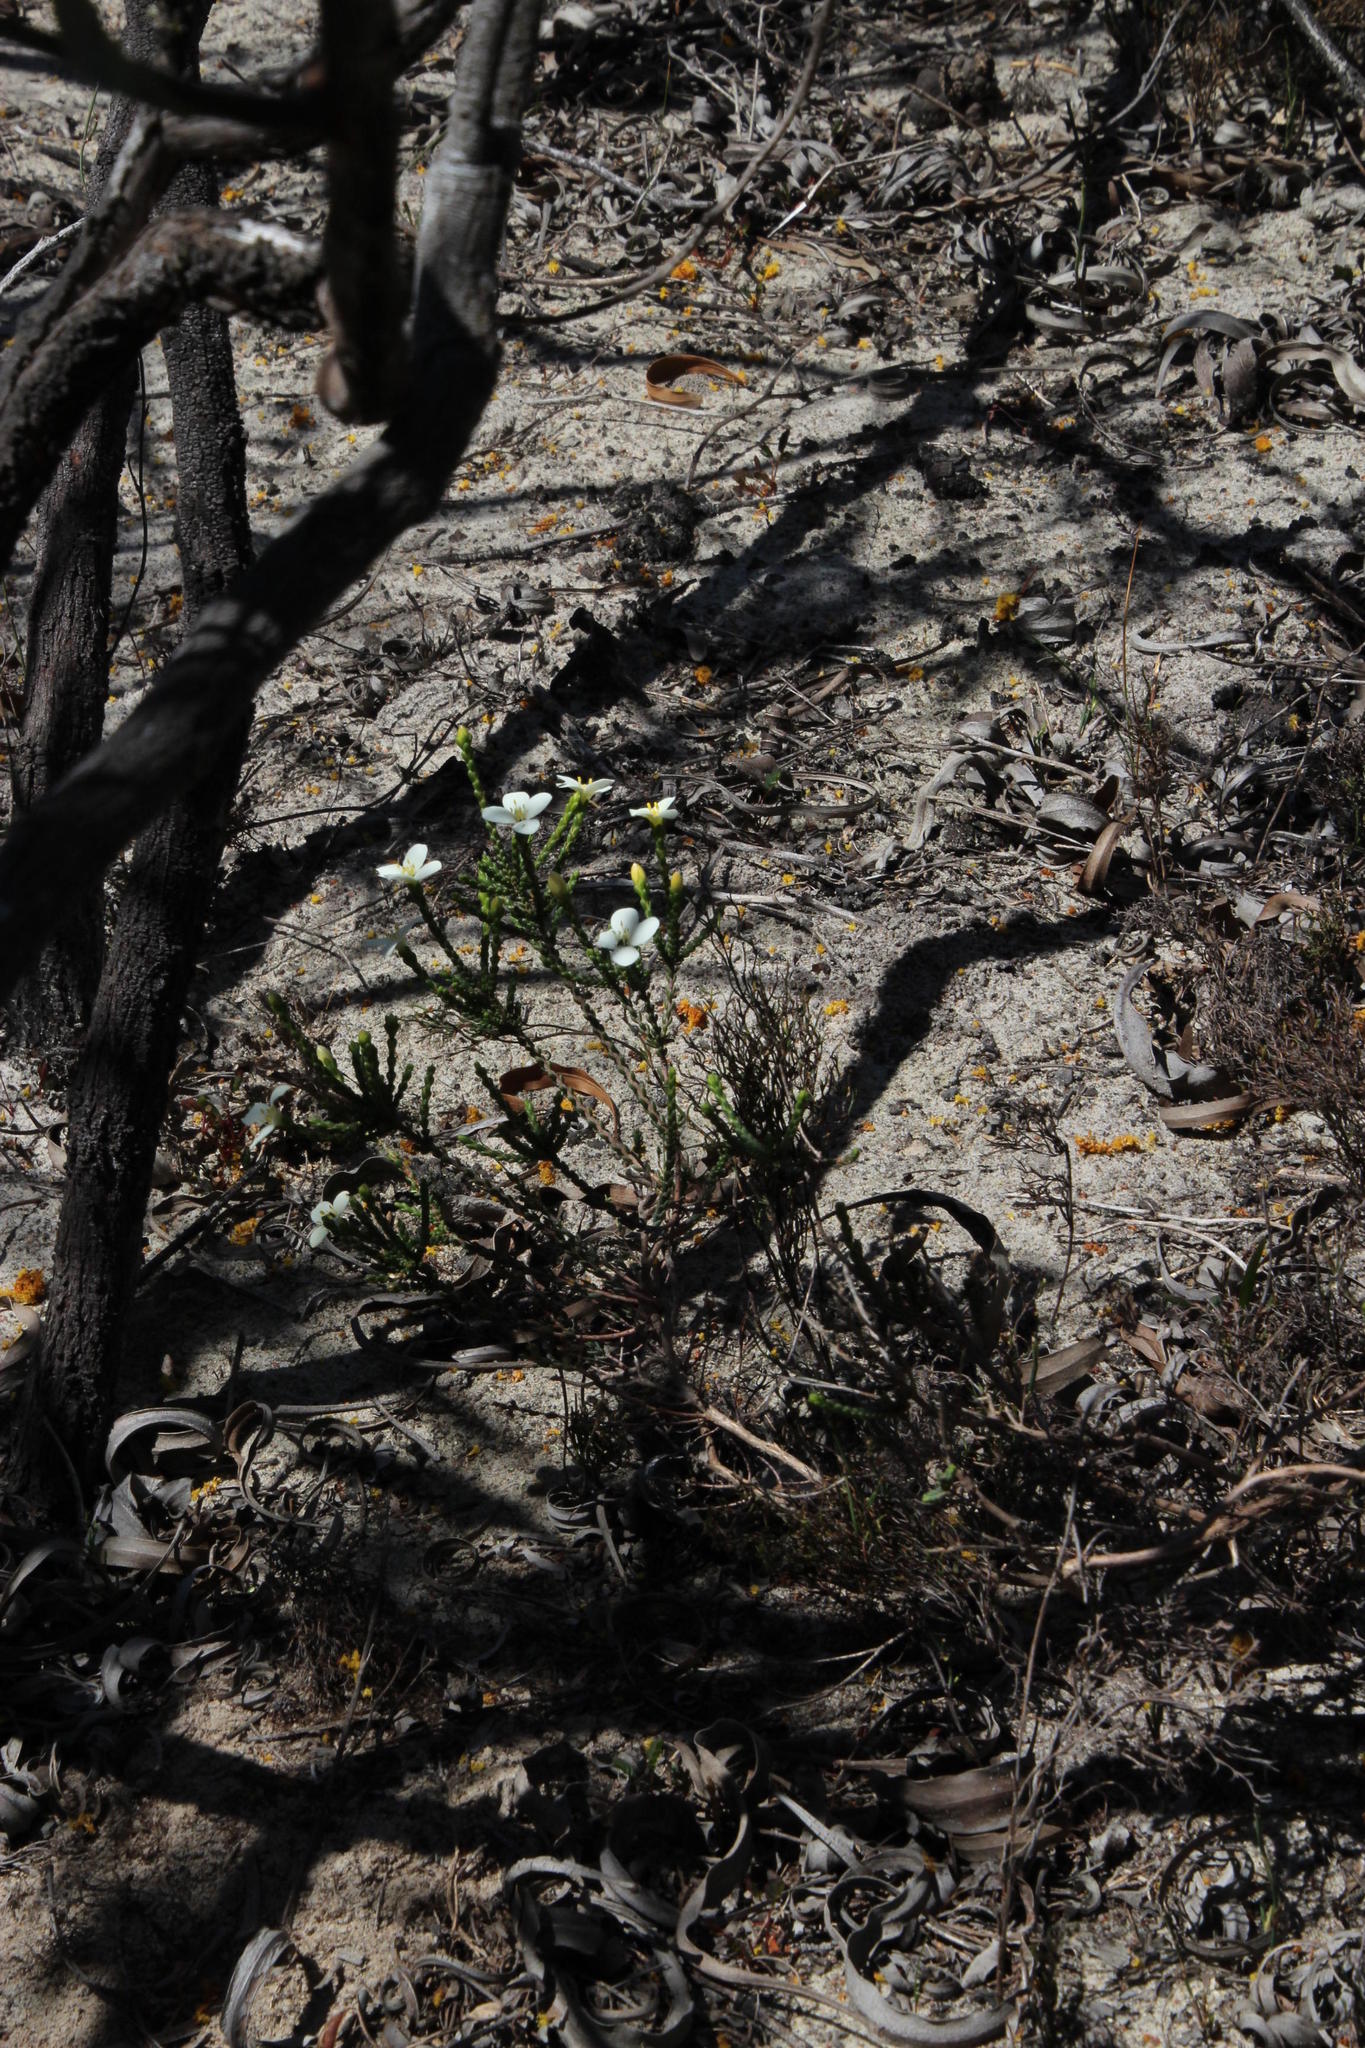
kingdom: Plantae
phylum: Tracheophyta
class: Magnoliopsida
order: Malvales
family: Thymelaeaceae
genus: Lachnaea
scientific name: Lachnaea grandiflora
